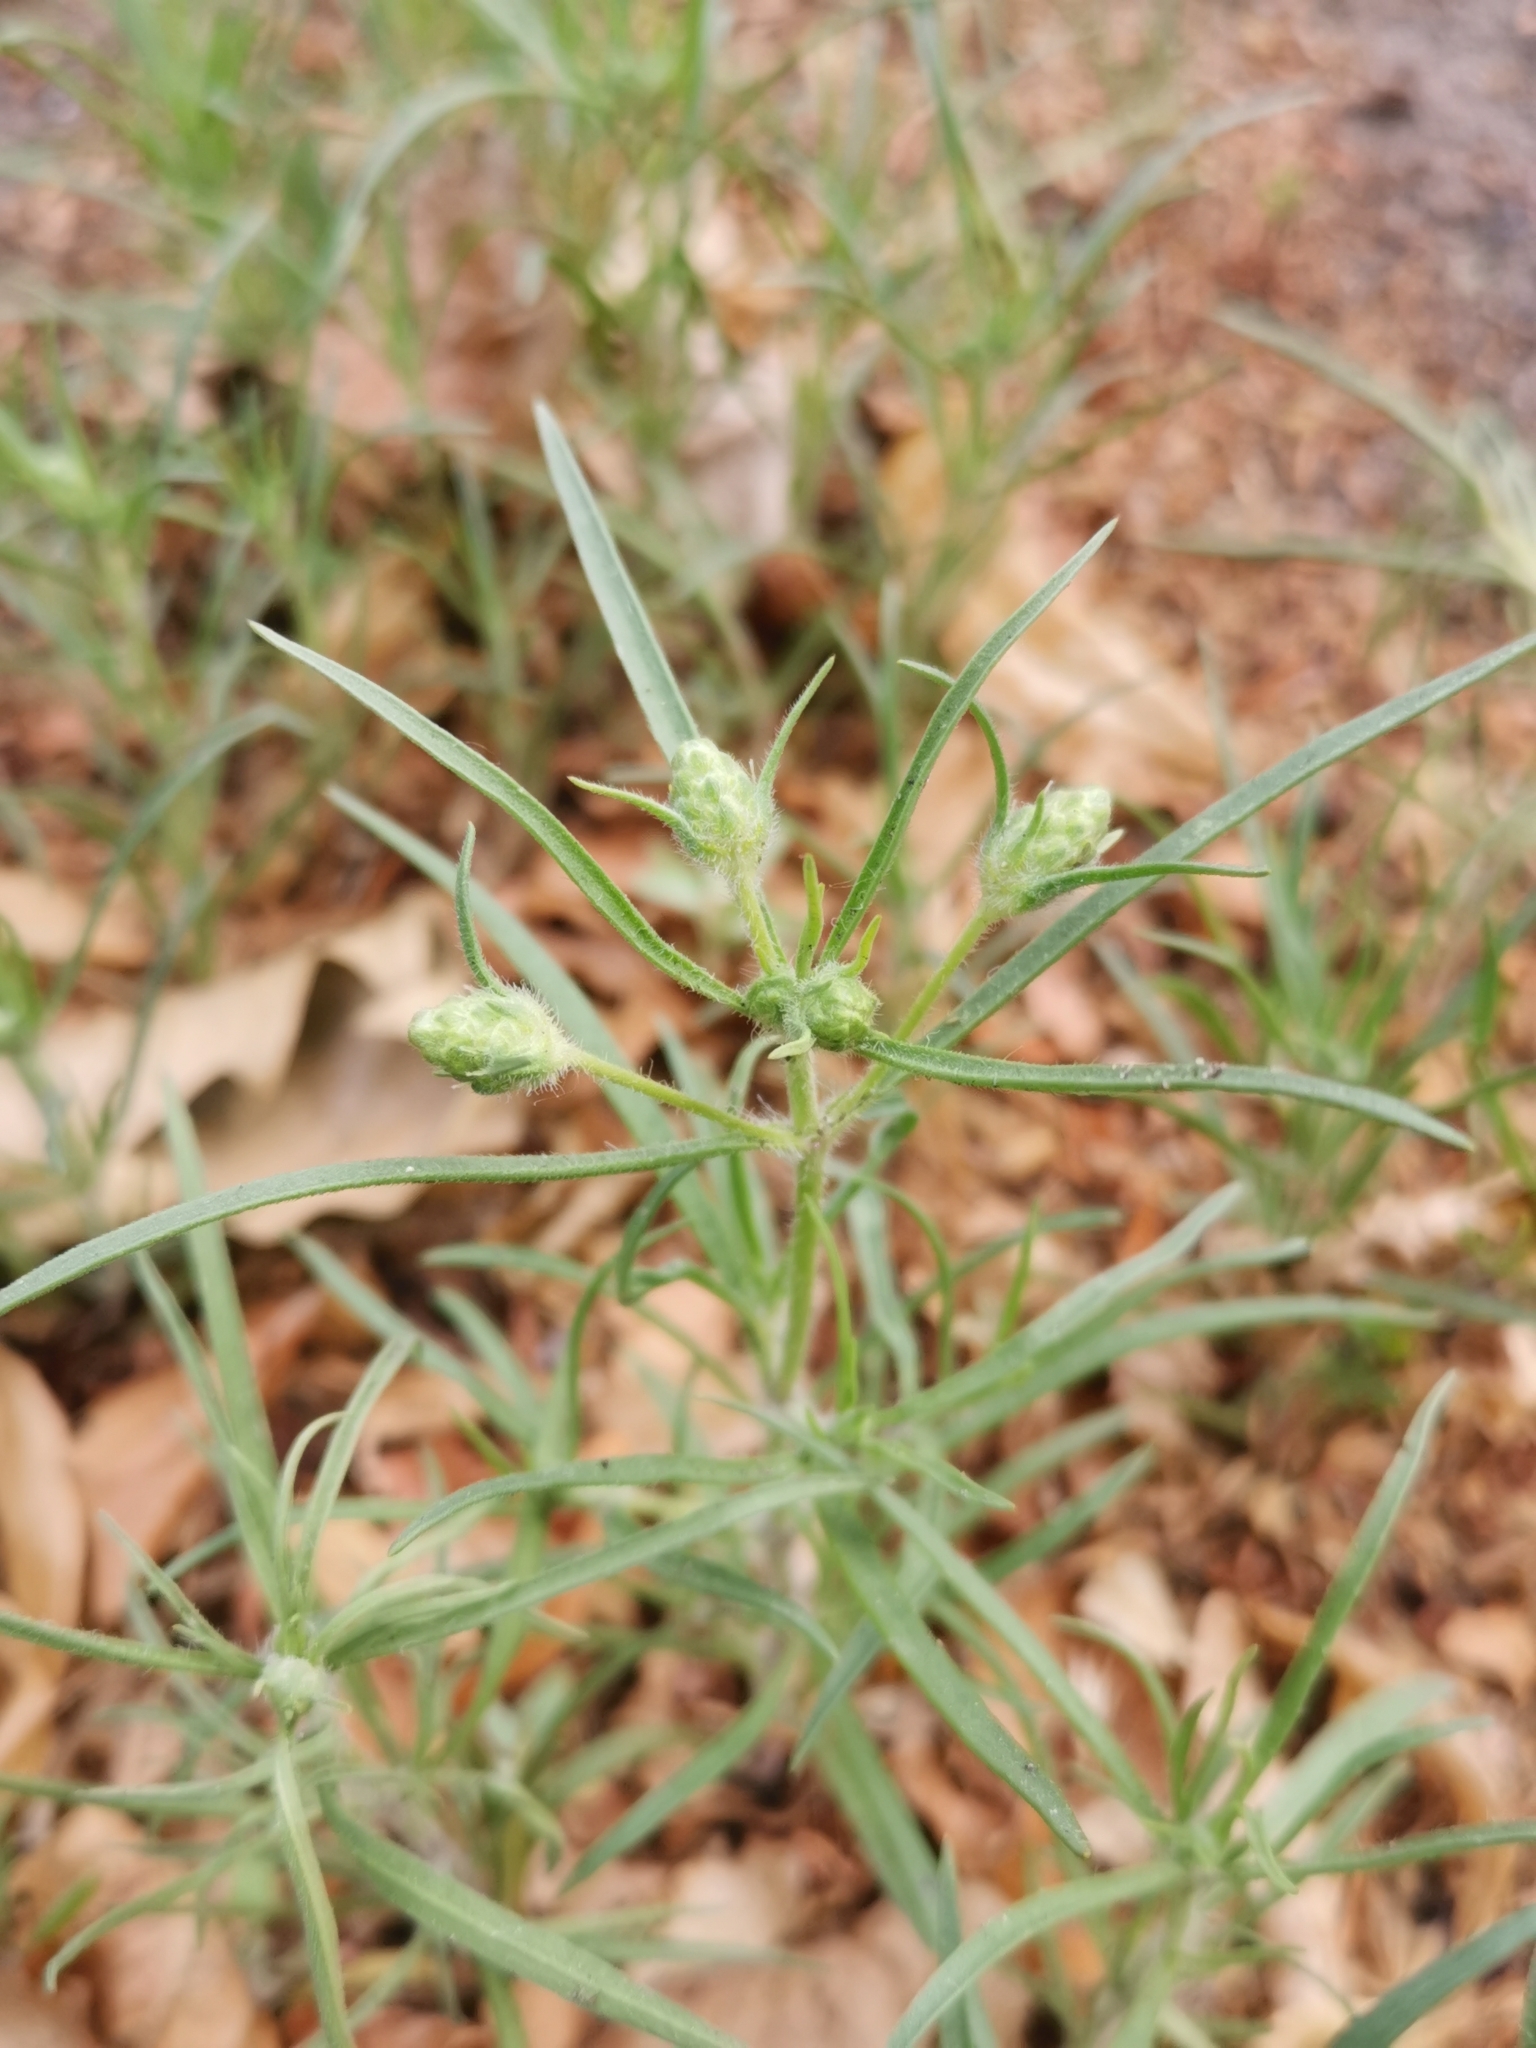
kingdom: Plantae
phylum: Tracheophyta
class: Magnoliopsida
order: Lamiales
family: Plantaginaceae
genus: Plantago
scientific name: Plantago arenaria
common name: Branched plantain
